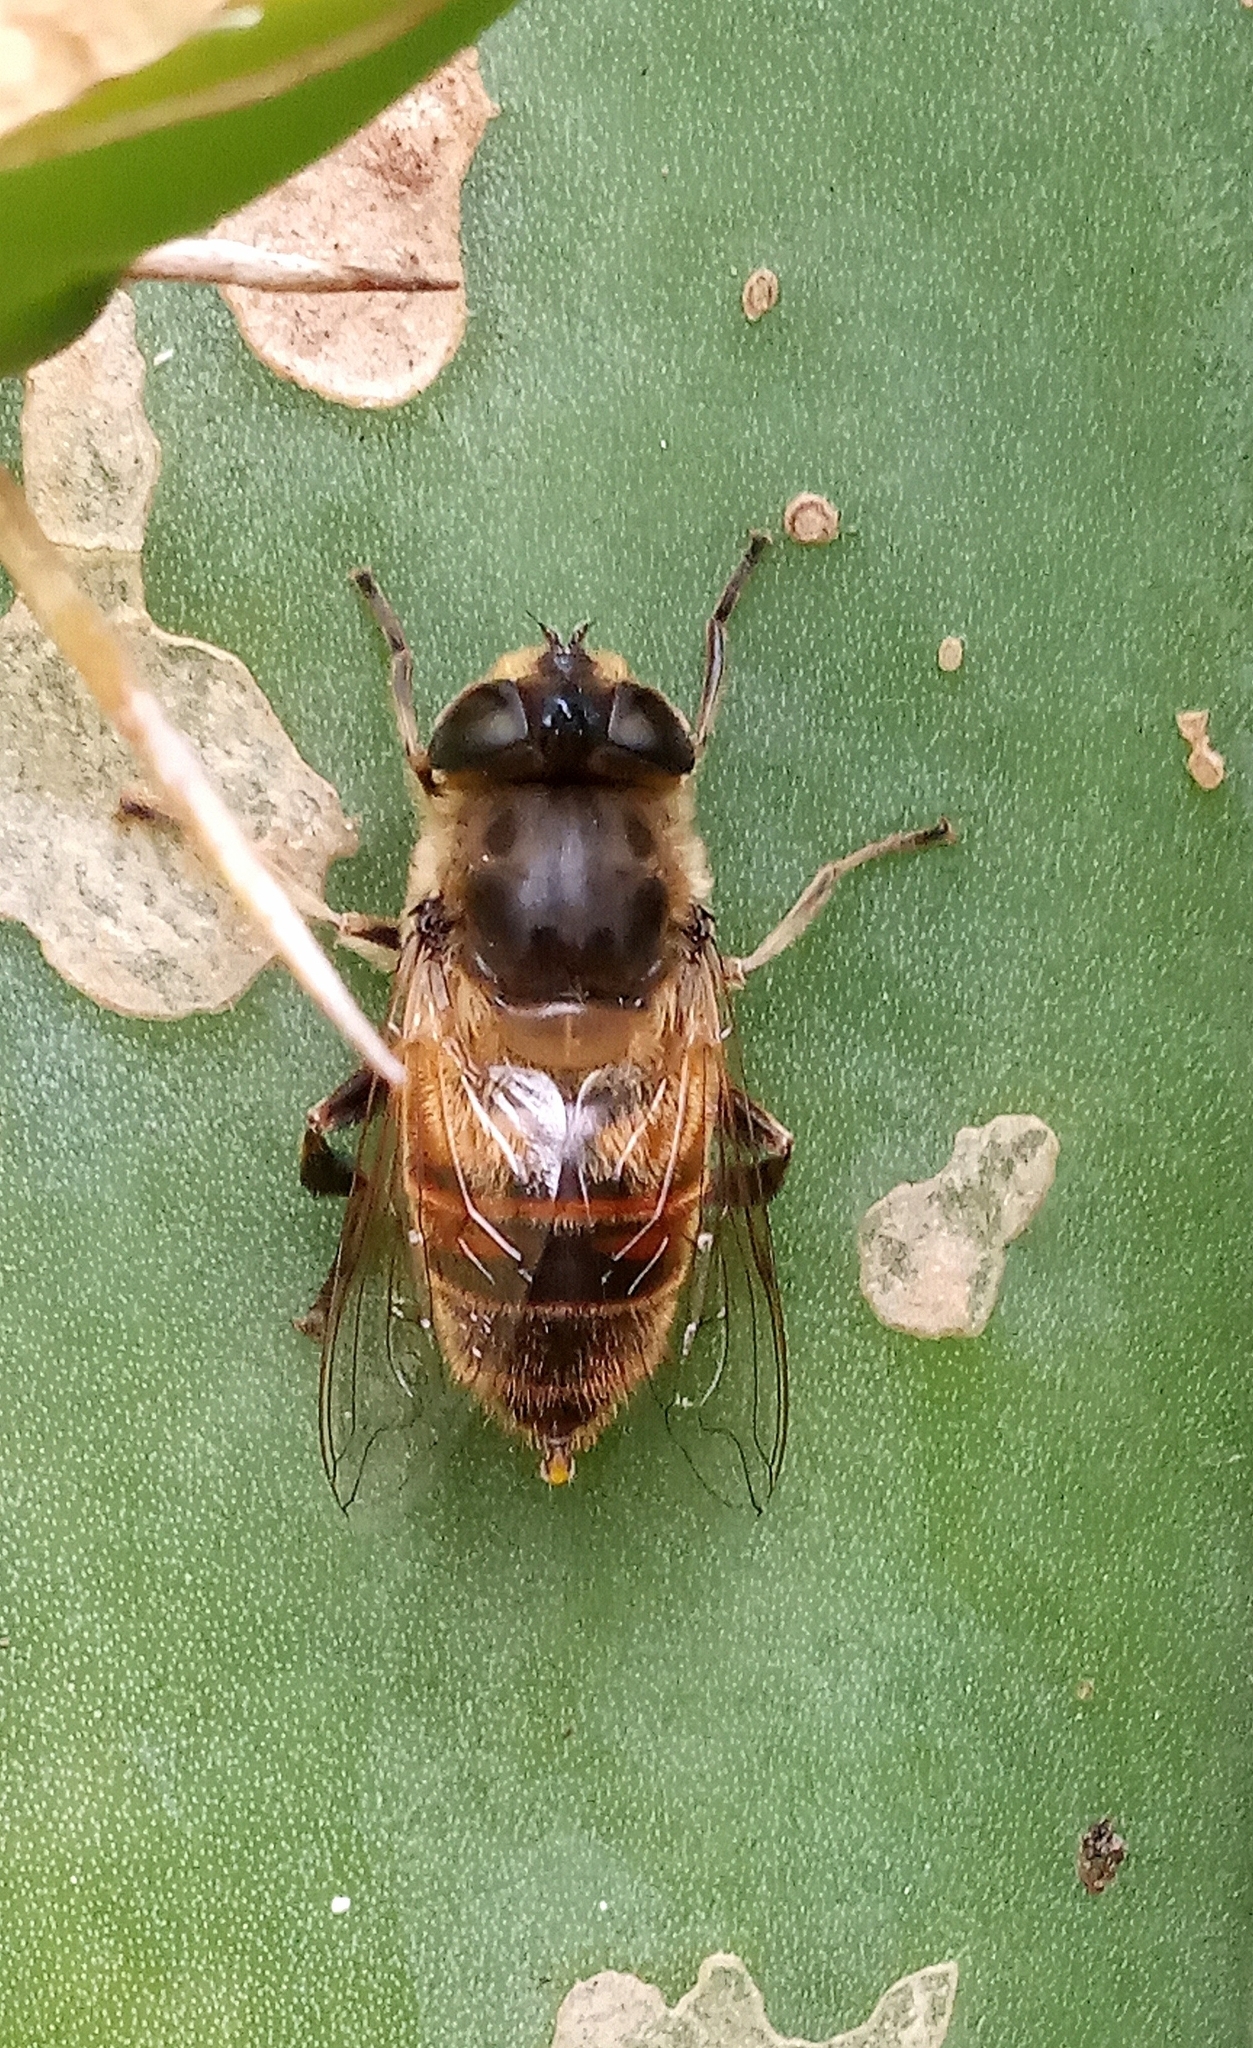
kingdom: Animalia
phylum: Arthropoda
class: Insecta
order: Diptera
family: Syrphidae
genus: Eristalis
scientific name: Eristalis tenax
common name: Drone fly
